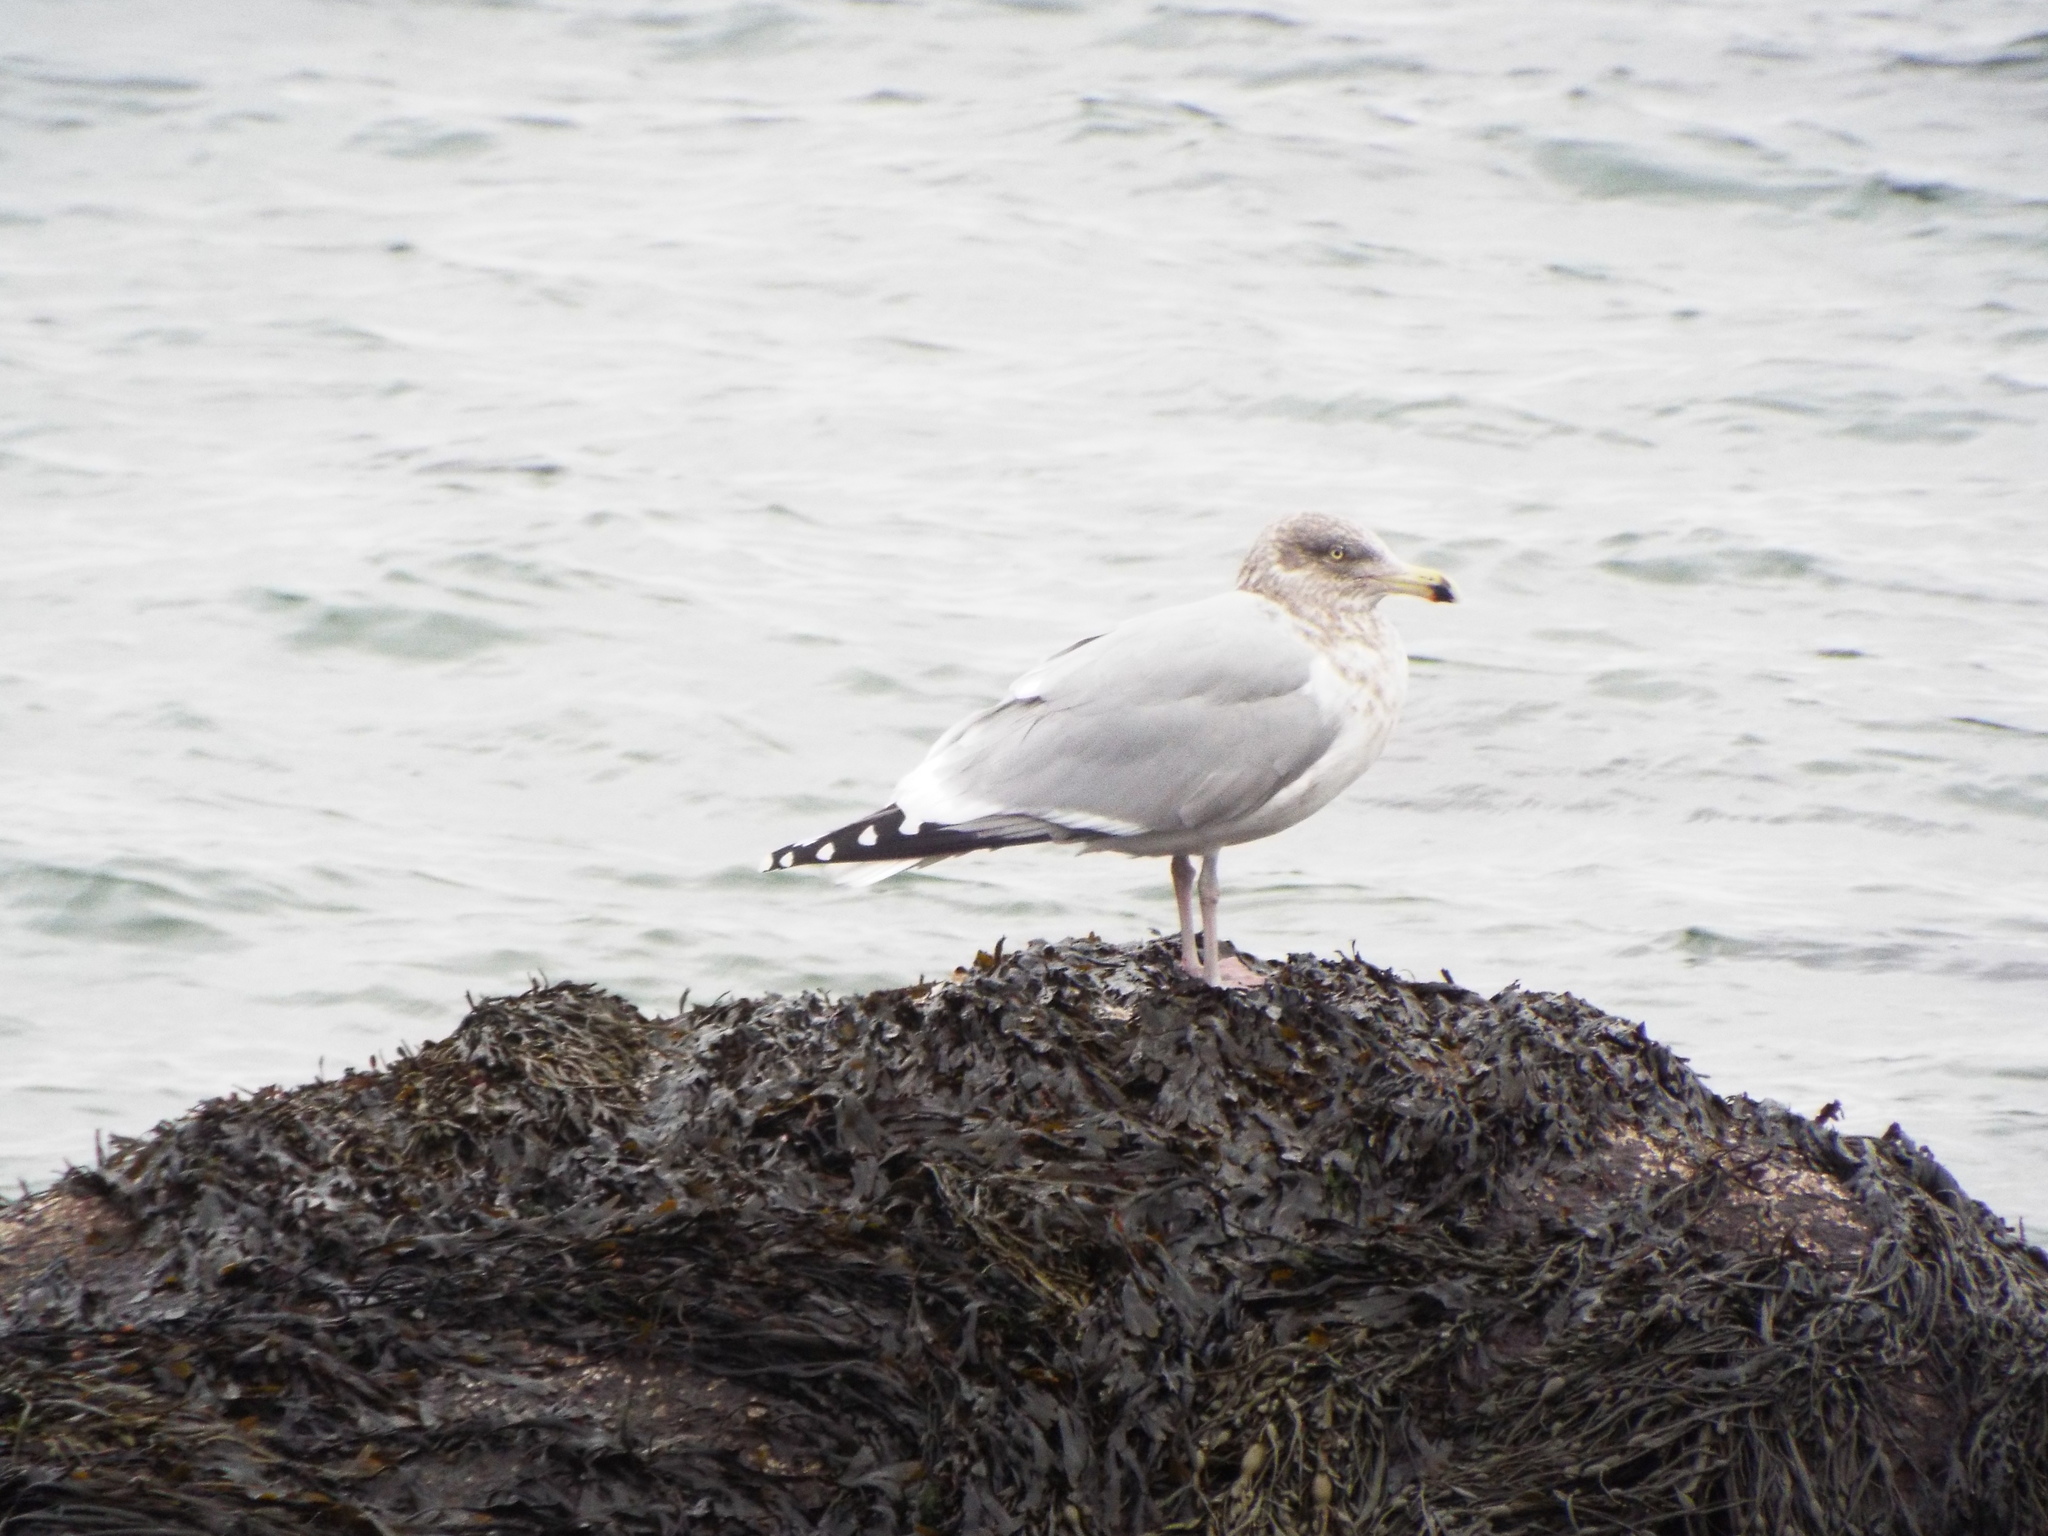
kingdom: Animalia
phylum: Chordata
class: Aves
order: Charadriiformes
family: Laridae
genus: Larus
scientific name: Larus argentatus
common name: Herring gull
